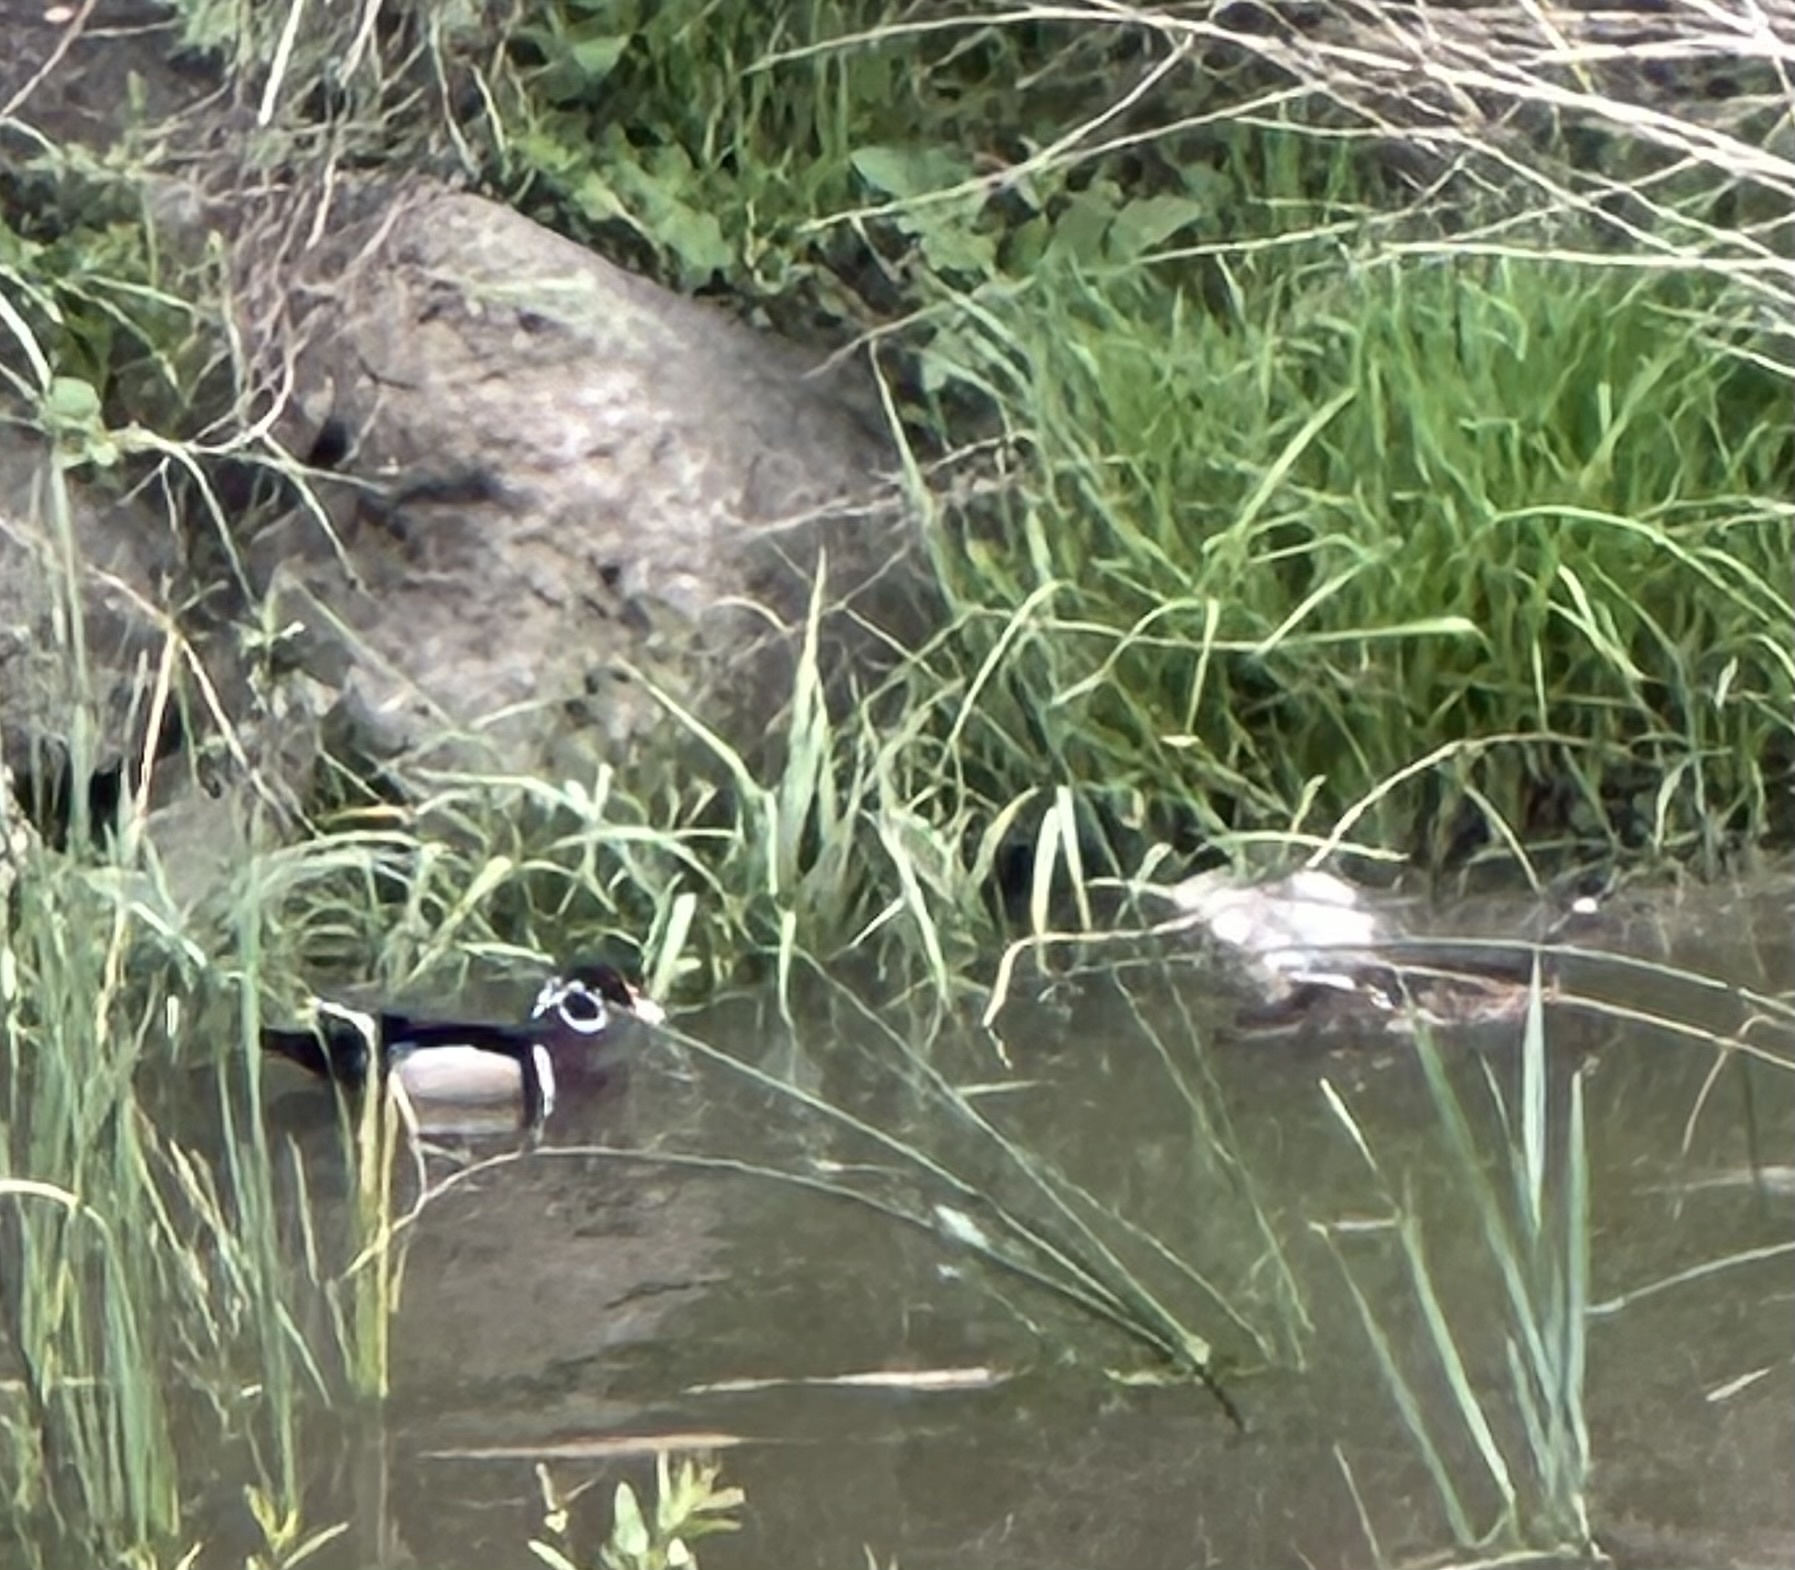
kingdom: Animalia
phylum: Chordata
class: Aves
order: Anseriformes
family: Anatidae
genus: Aix
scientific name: Aix sponsa
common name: Wood duck
